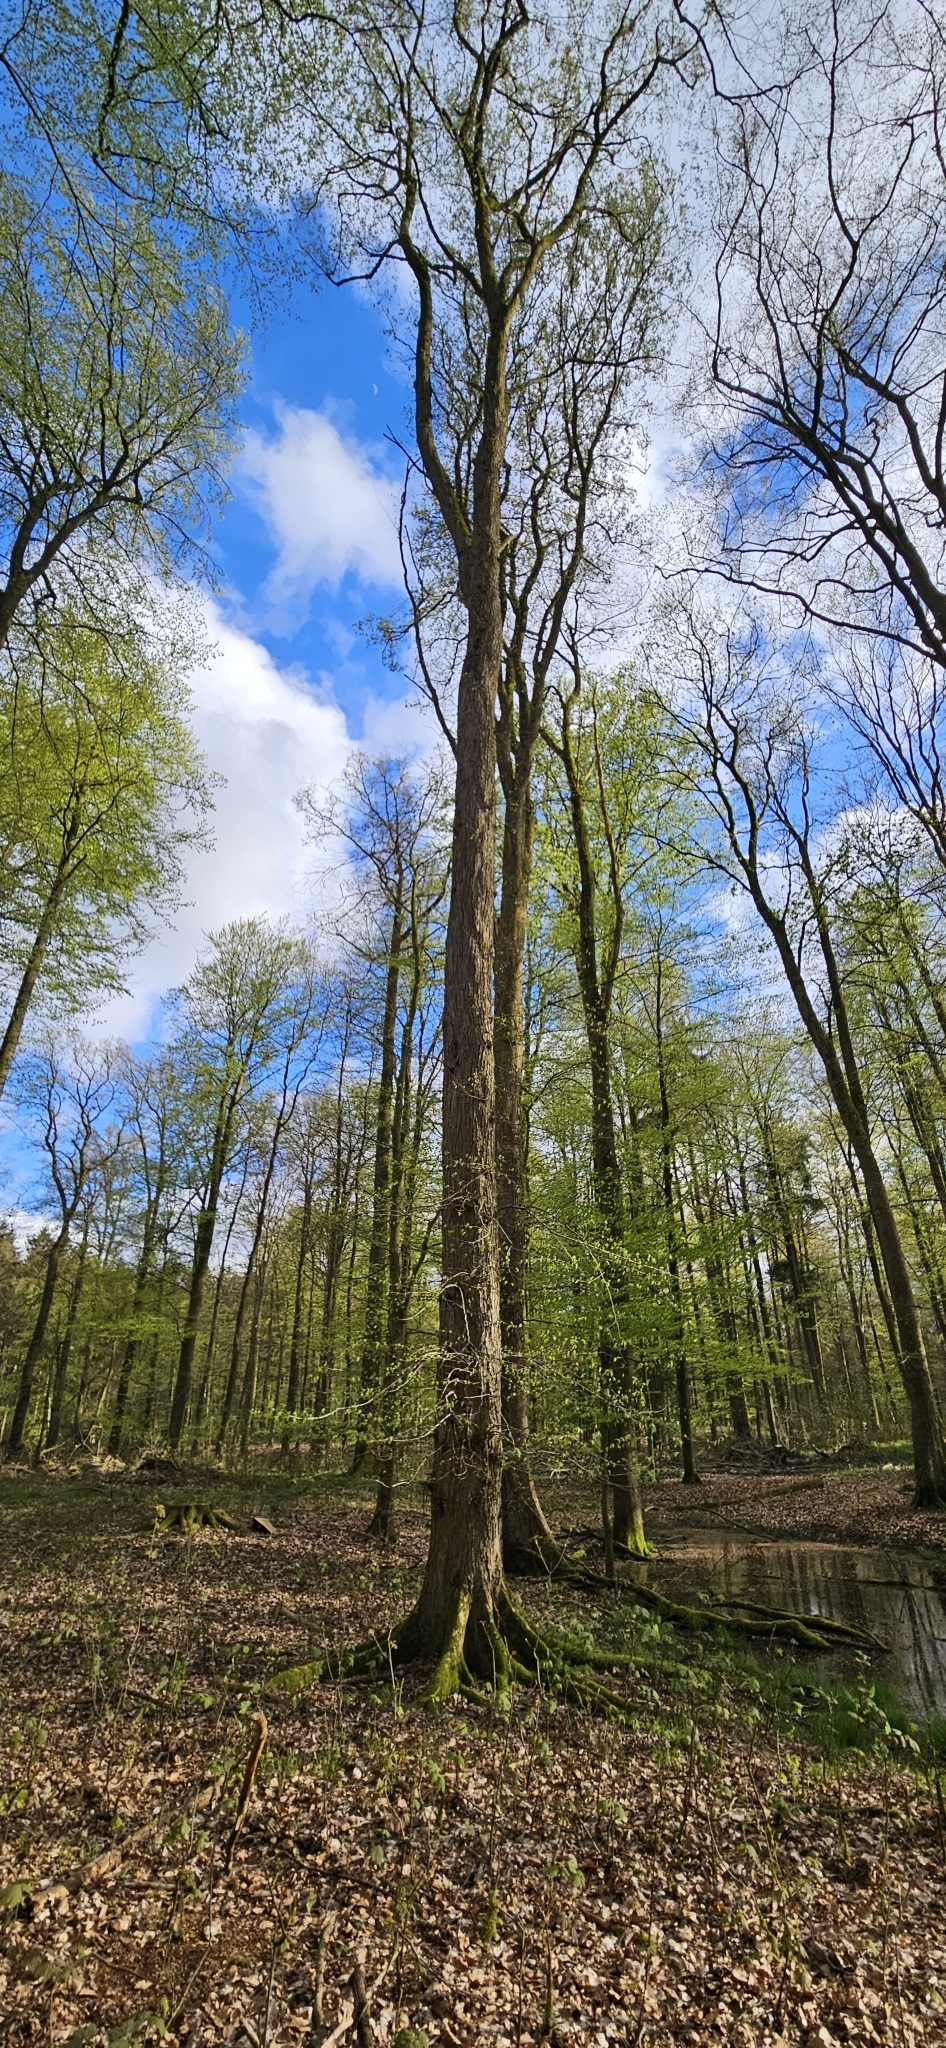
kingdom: Plantae
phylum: Tracheophyta
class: Magnoliopsida
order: Rosales
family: Ulmaceae
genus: Ulmus
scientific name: Ulmus laevis
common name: European white-elm
